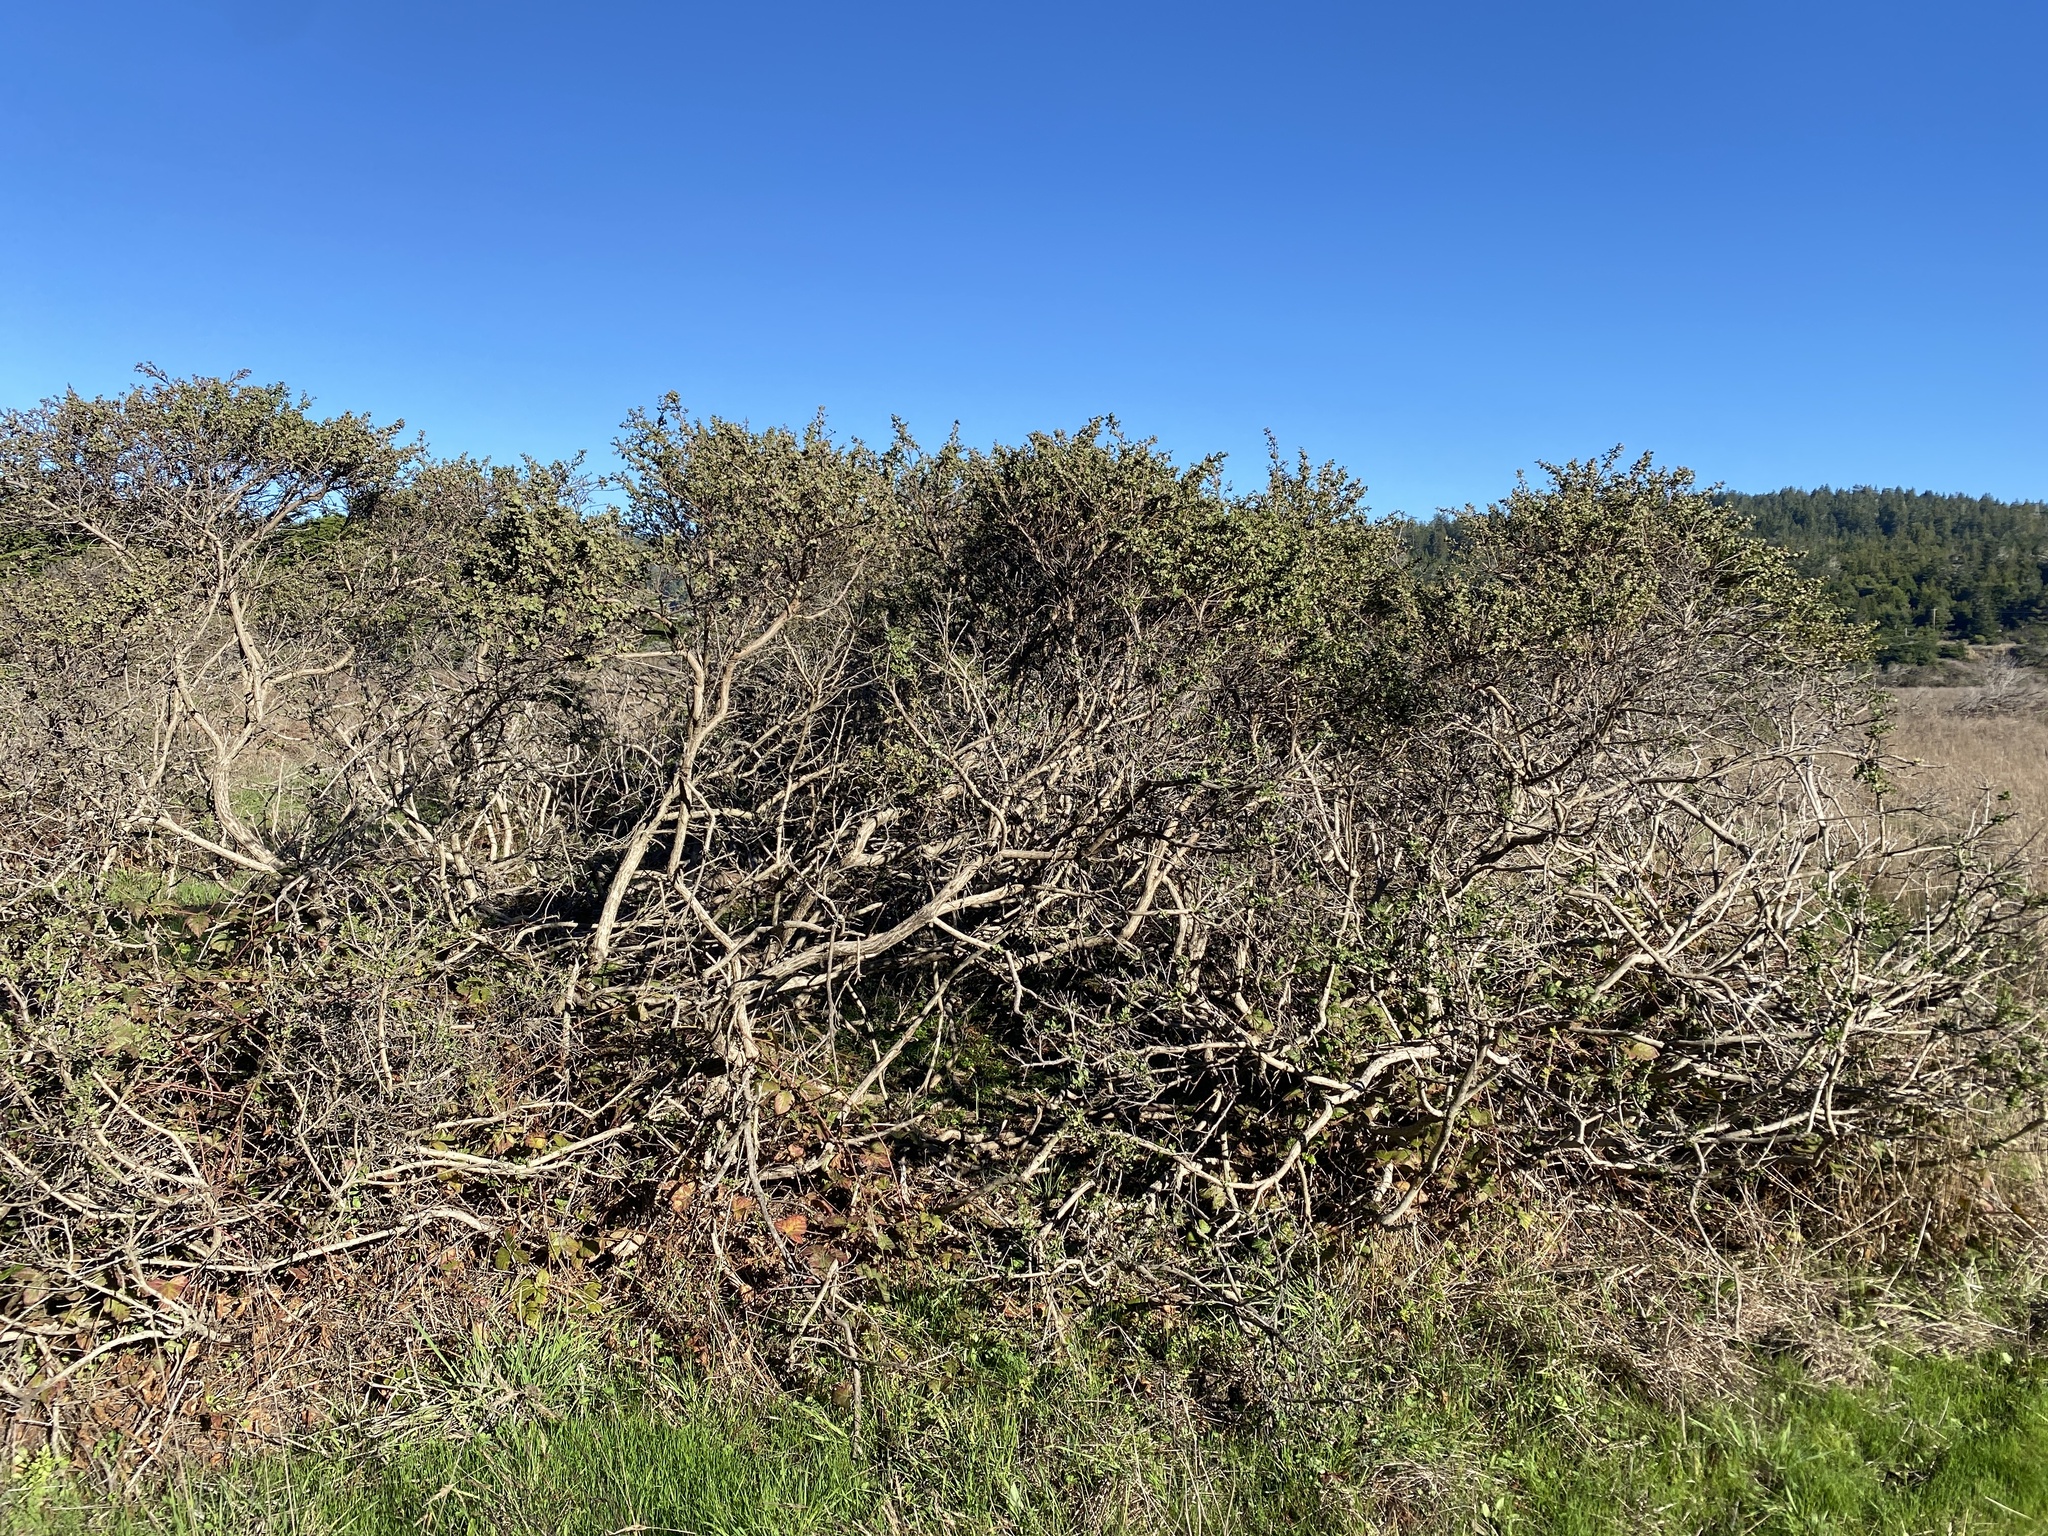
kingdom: Plantae
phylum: Tracheophyta
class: Magnoliopsida
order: Asterales
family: Asteraceae
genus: Baccharis
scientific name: Baccharis pilularis
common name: Coyotebrush
